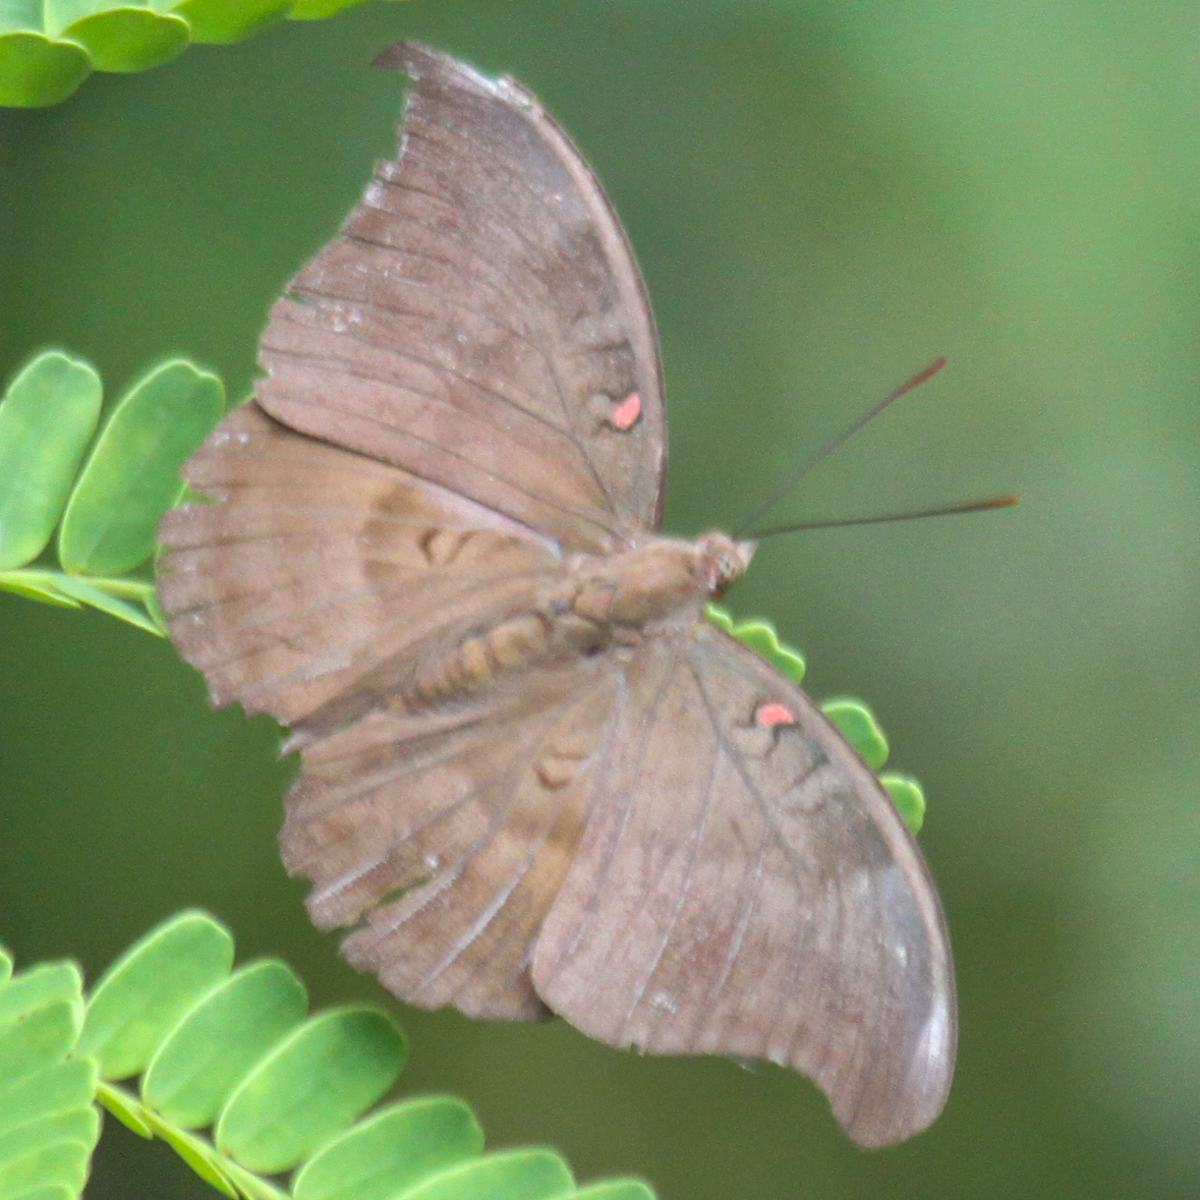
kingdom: Animalia
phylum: Arthropoda
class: Insecta
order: Lepidoptera
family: Nymphalidae
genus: Euthalia
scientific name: Euthalia Dophla evelina
